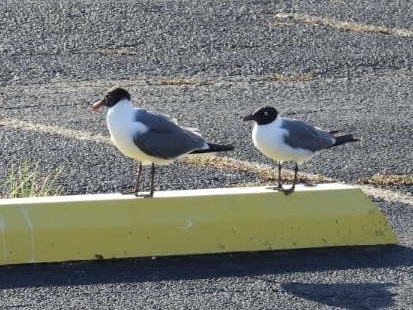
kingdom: Animalia
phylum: Chordata
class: Aves
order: Charadriiformes
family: Laridae
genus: Leucophaeus
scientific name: Leucophaeus atricilla
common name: Laughing gull
